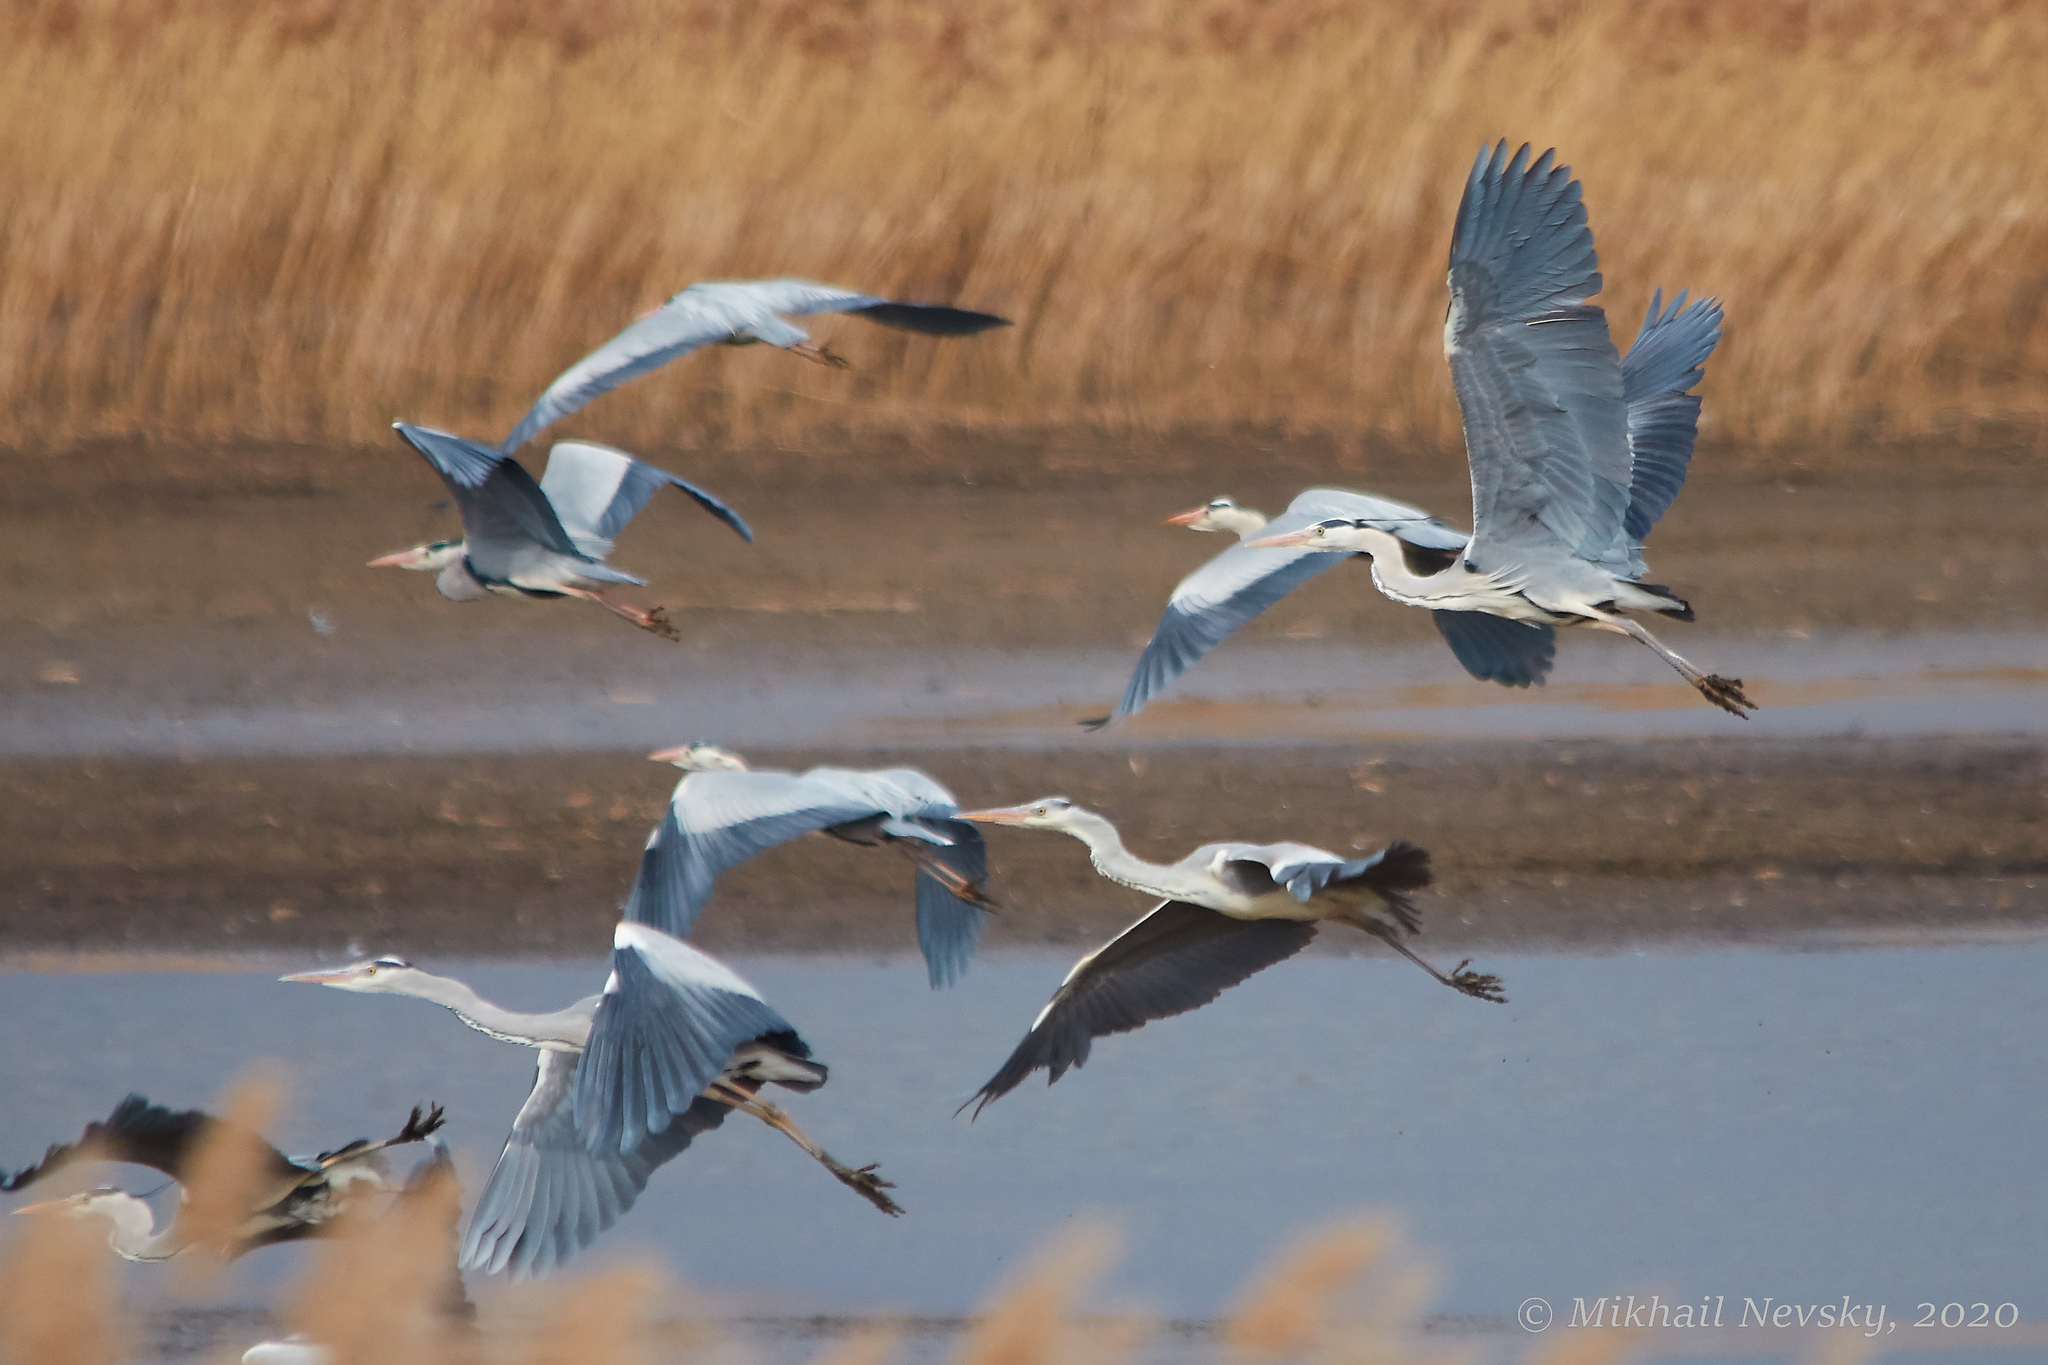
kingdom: Animalia
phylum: Chordata
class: Aves
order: Pelecaniformes
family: Ardeidae
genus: Ardea
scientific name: Ardea cinerea
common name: Grey heron
